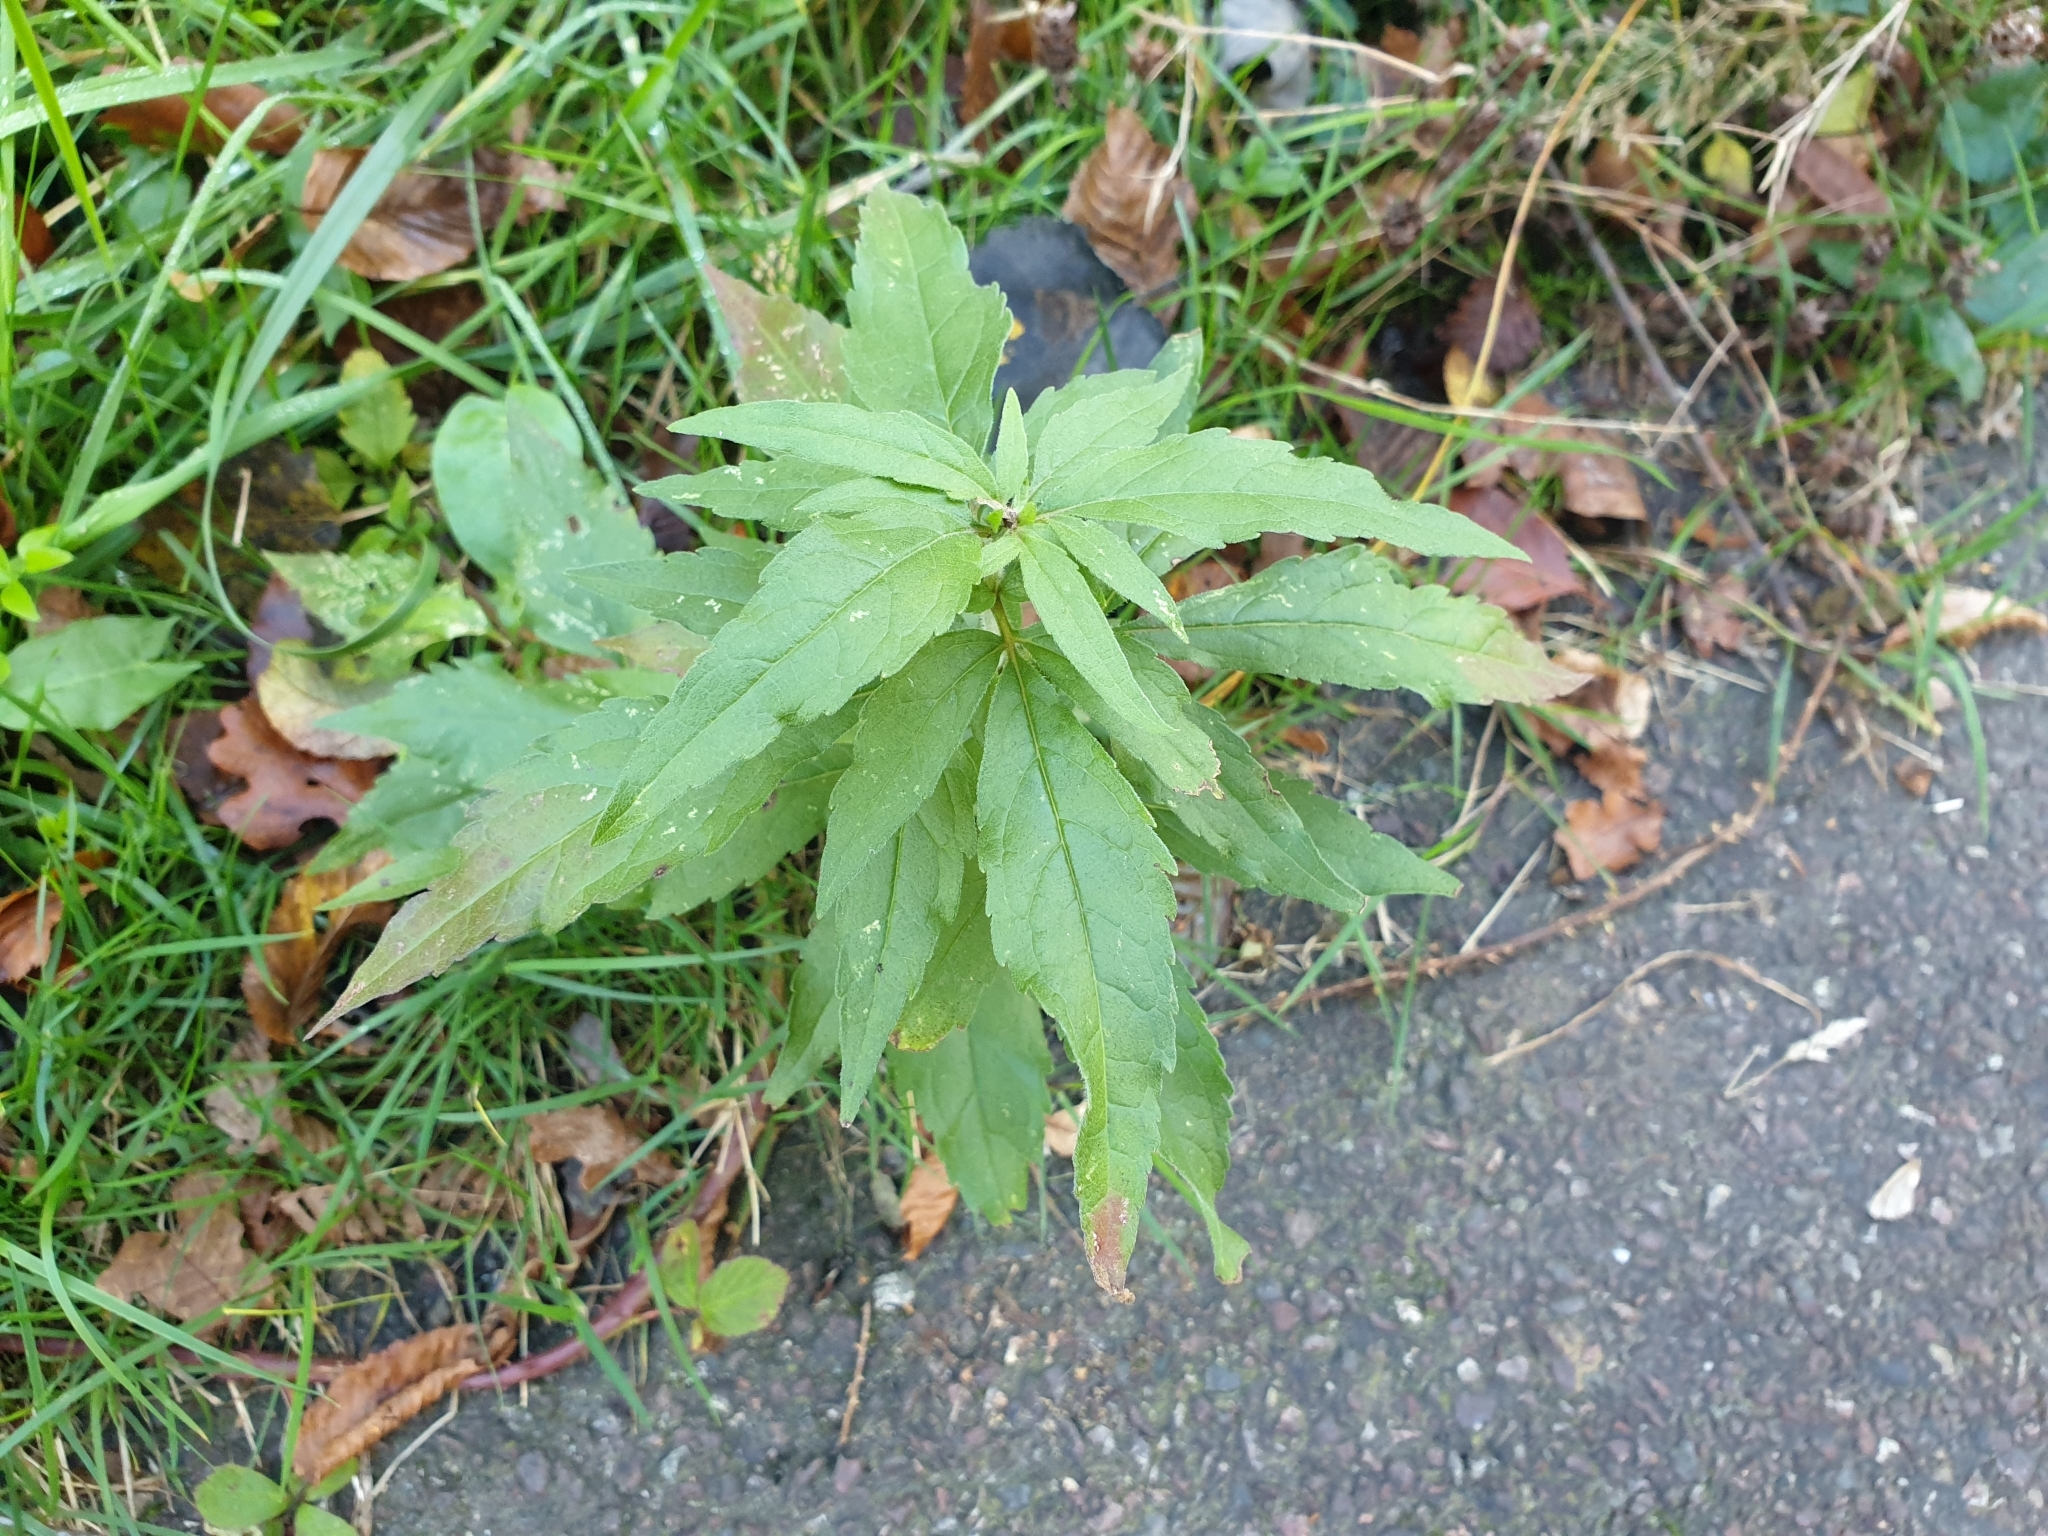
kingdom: Plantae
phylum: Tracheophyta
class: Magnoliopsida
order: Asterales
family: Asteraceae
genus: Eupatorium
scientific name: Eupatorium cannabinum
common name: Hemp-agrimony
